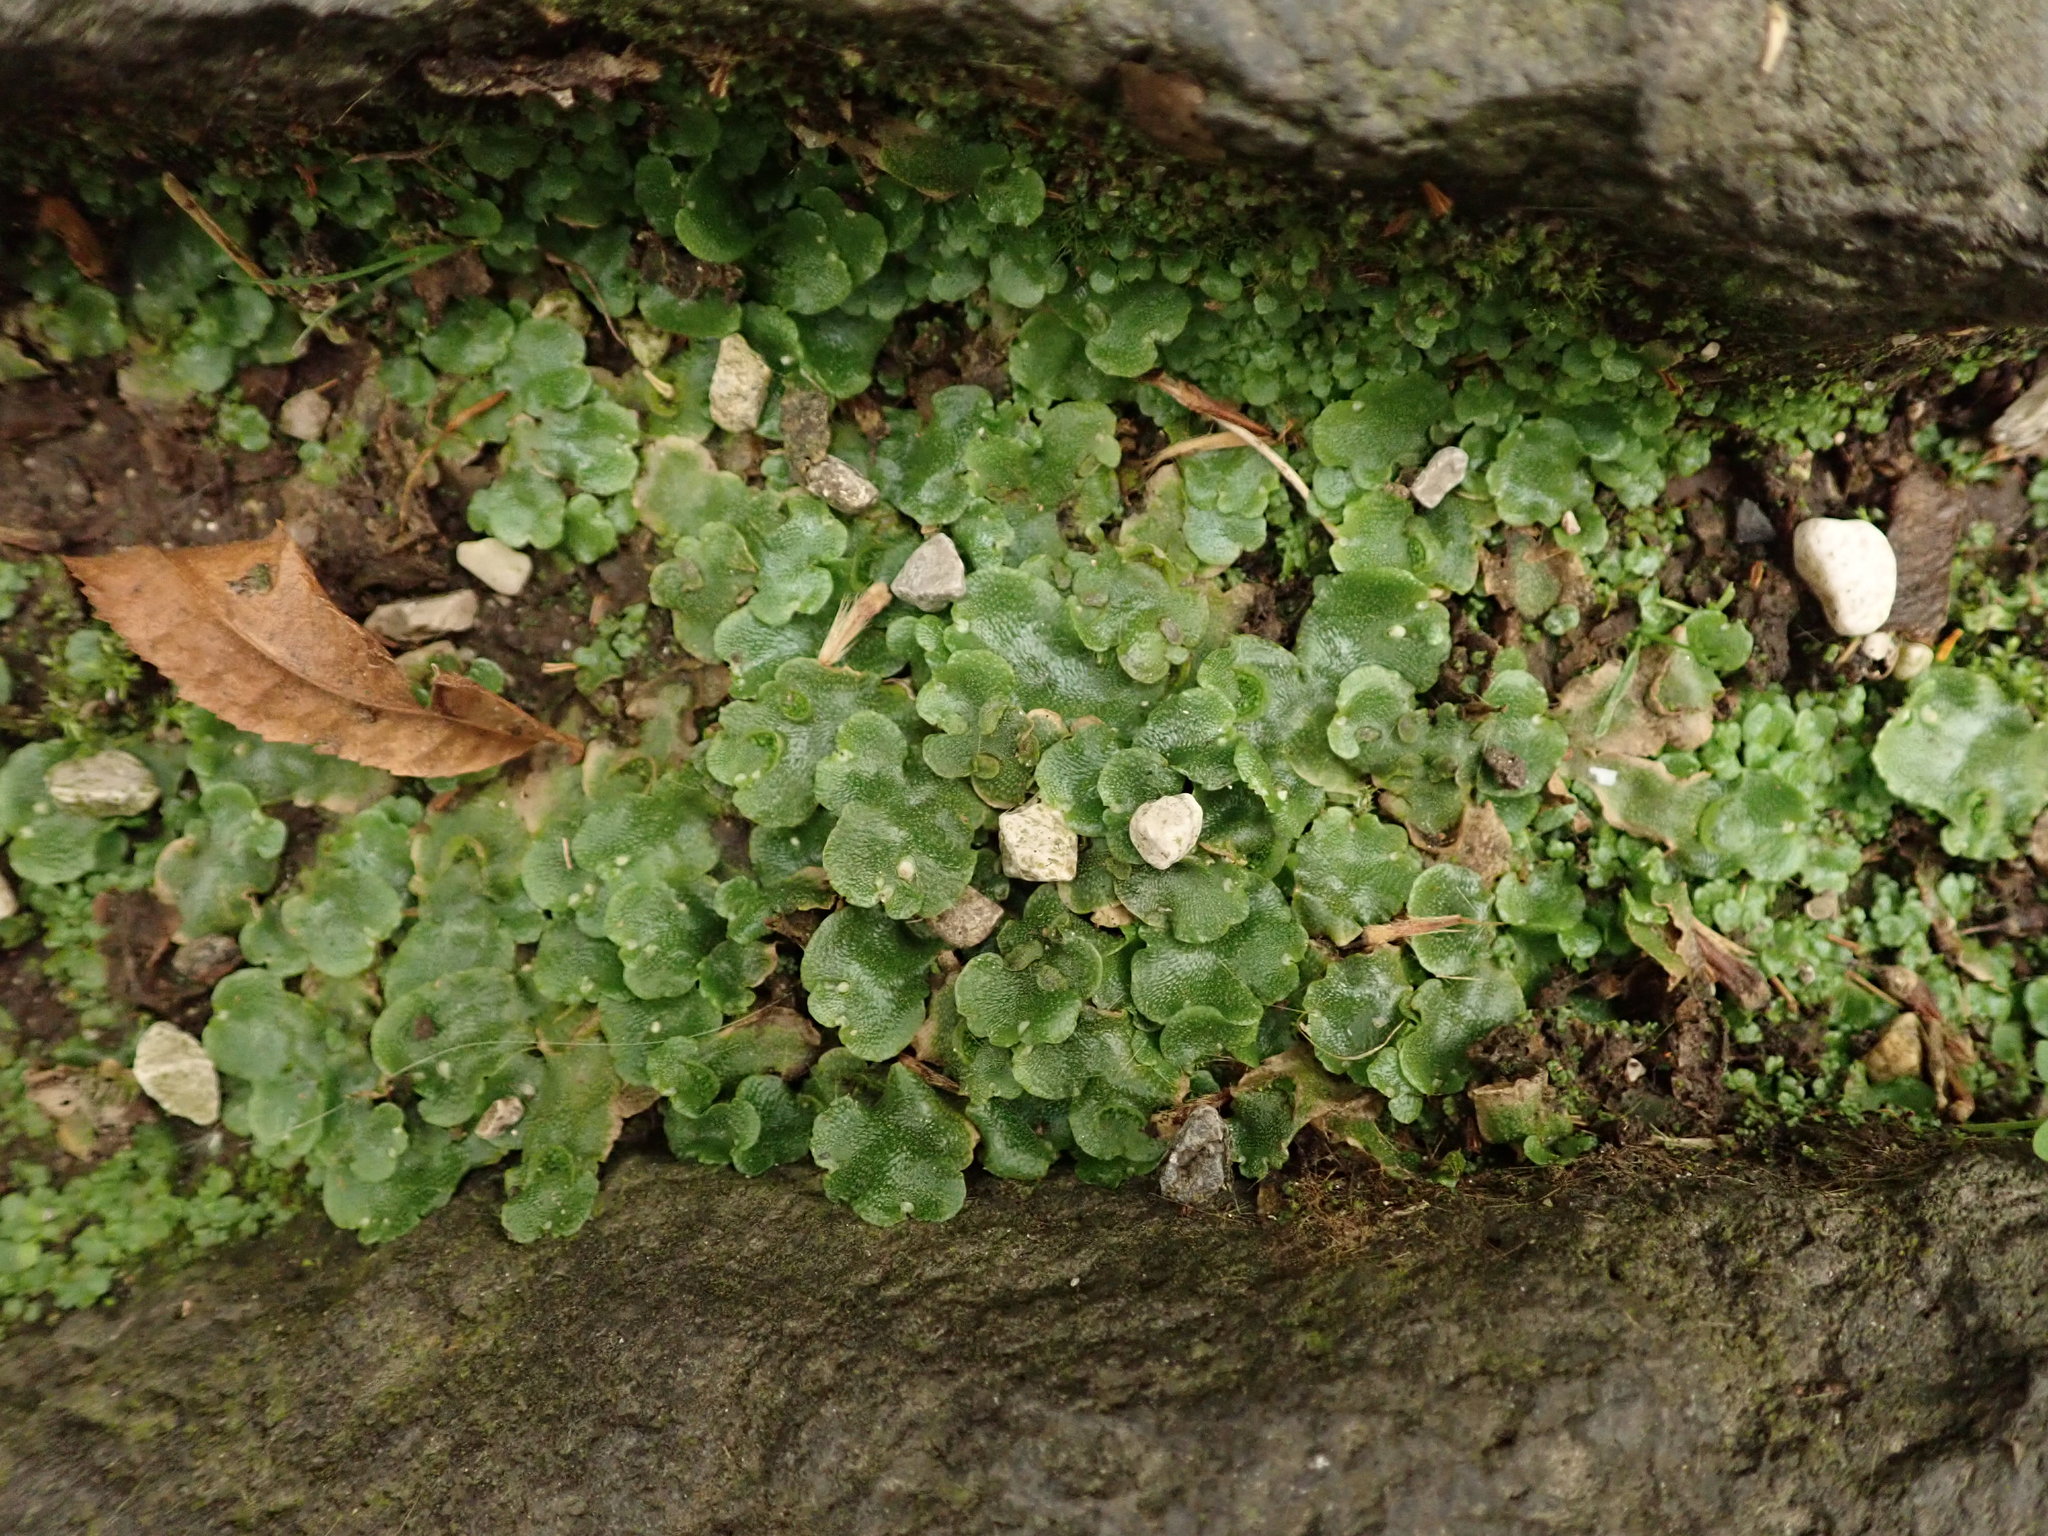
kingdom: Plantae
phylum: Marchantiophyta
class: Marchantiopsida
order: Lunulariales
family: Lunulariaceae
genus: Lunularia
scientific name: Lunularia cruciata
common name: Crescent-cup liverwort
